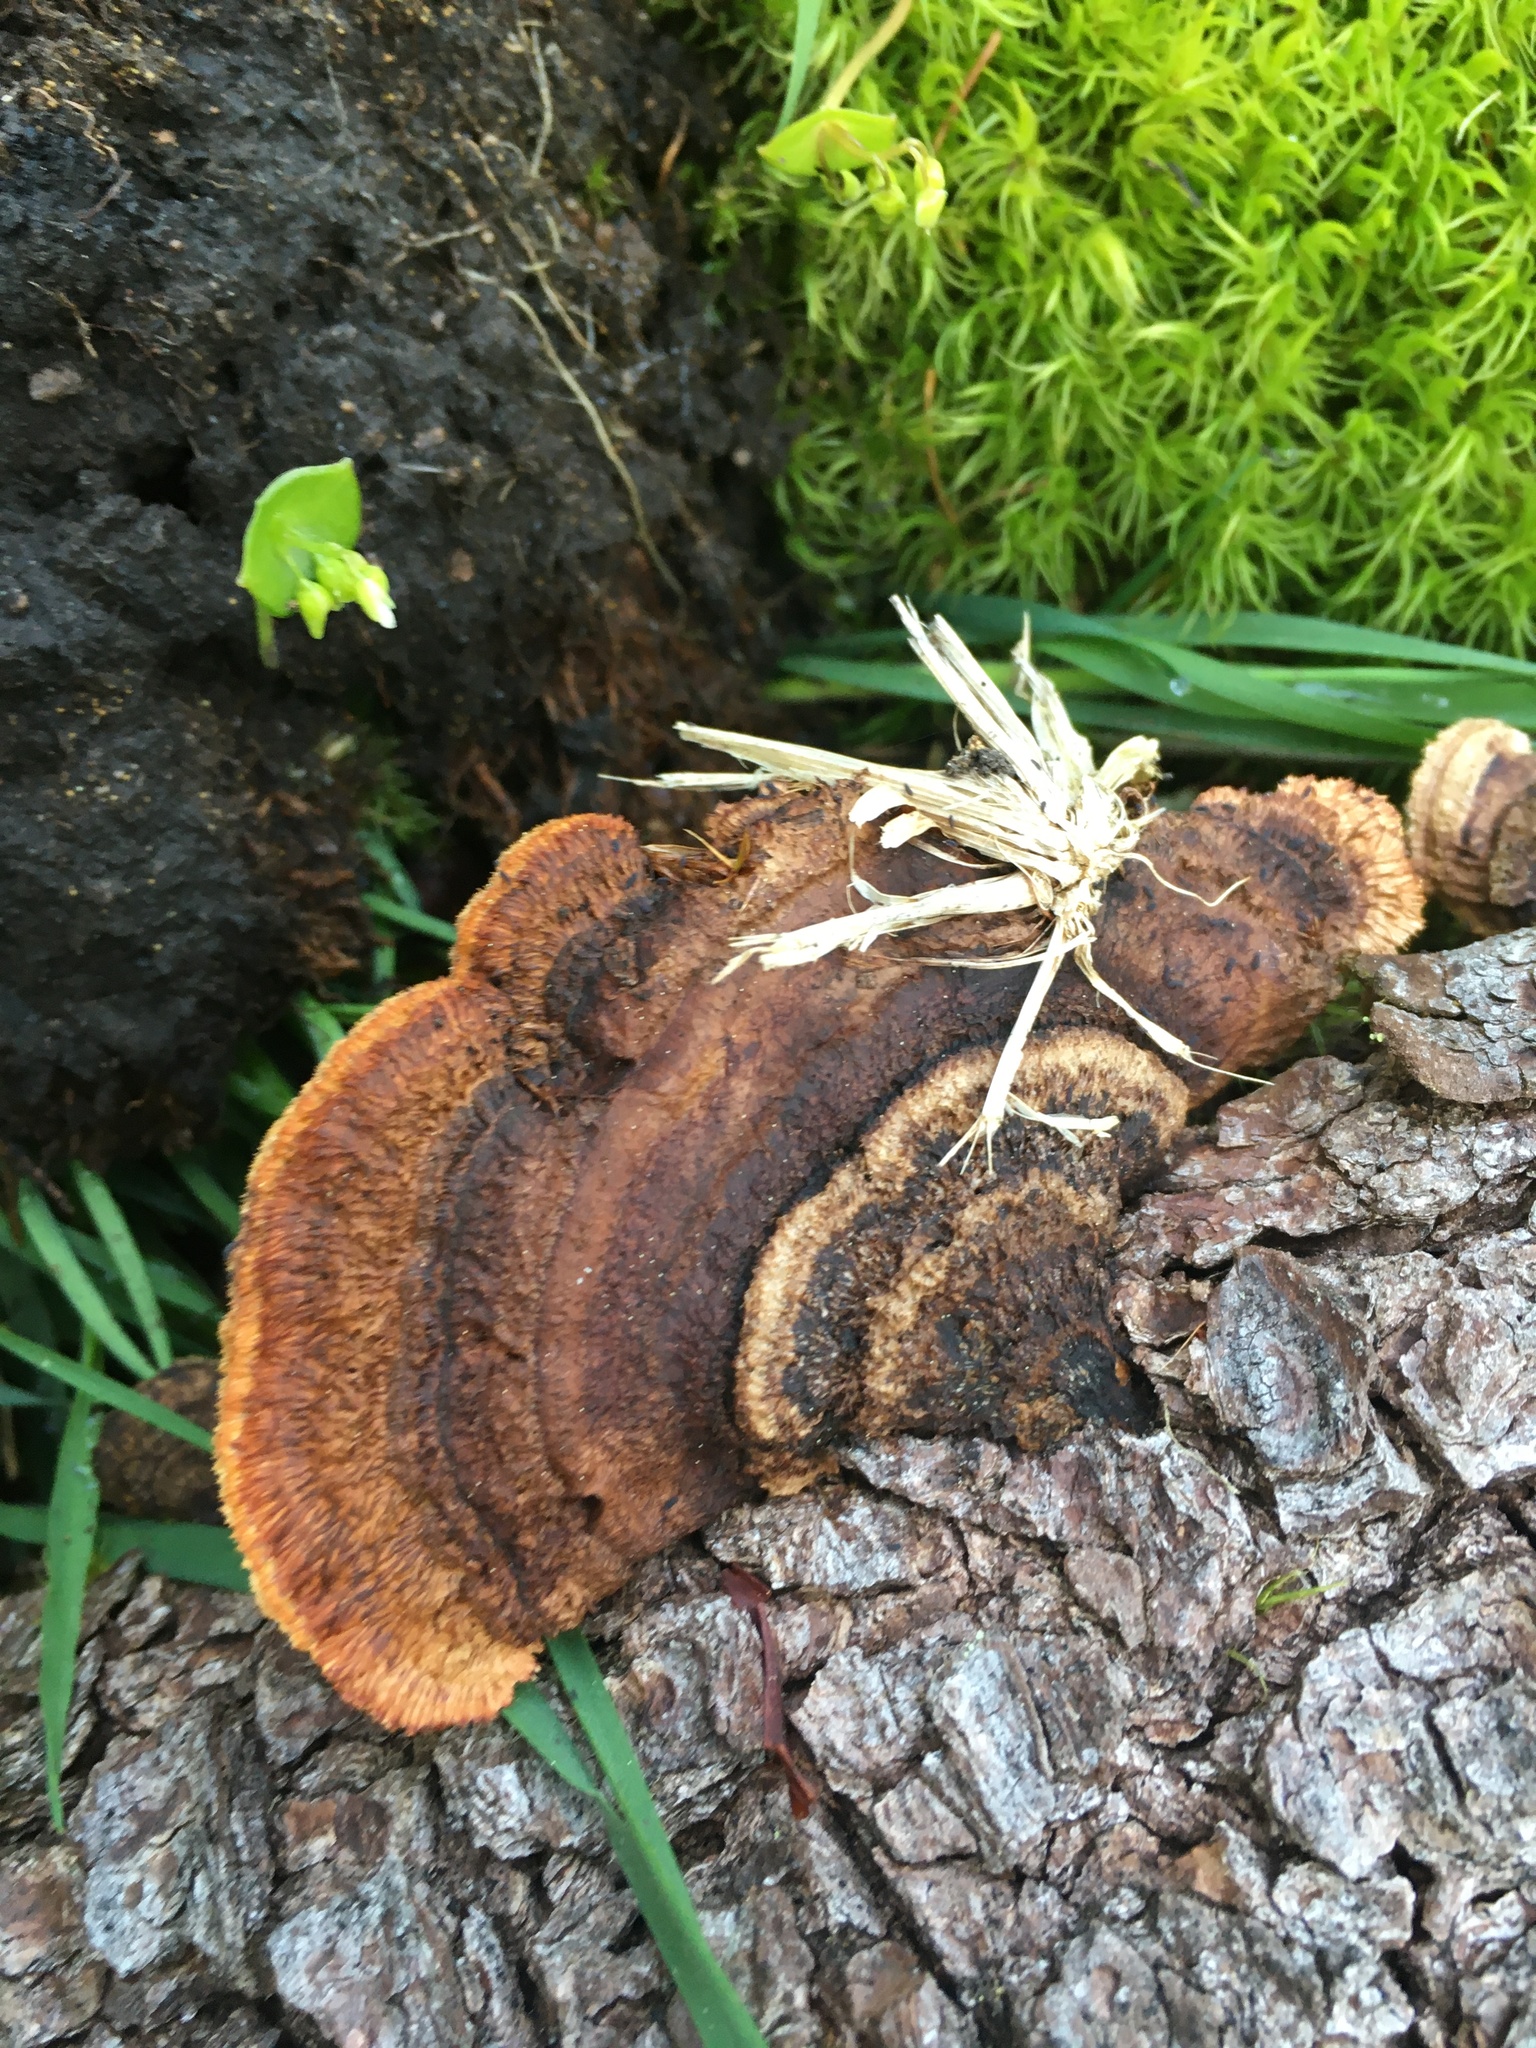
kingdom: Fungi
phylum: Basidiomycota
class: Agaricomycetes
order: Gloeophyllales
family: Gloeophyllaceae
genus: Gloeophyllum
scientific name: Gloeophyllum sepiarium
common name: Conifer mazegill
